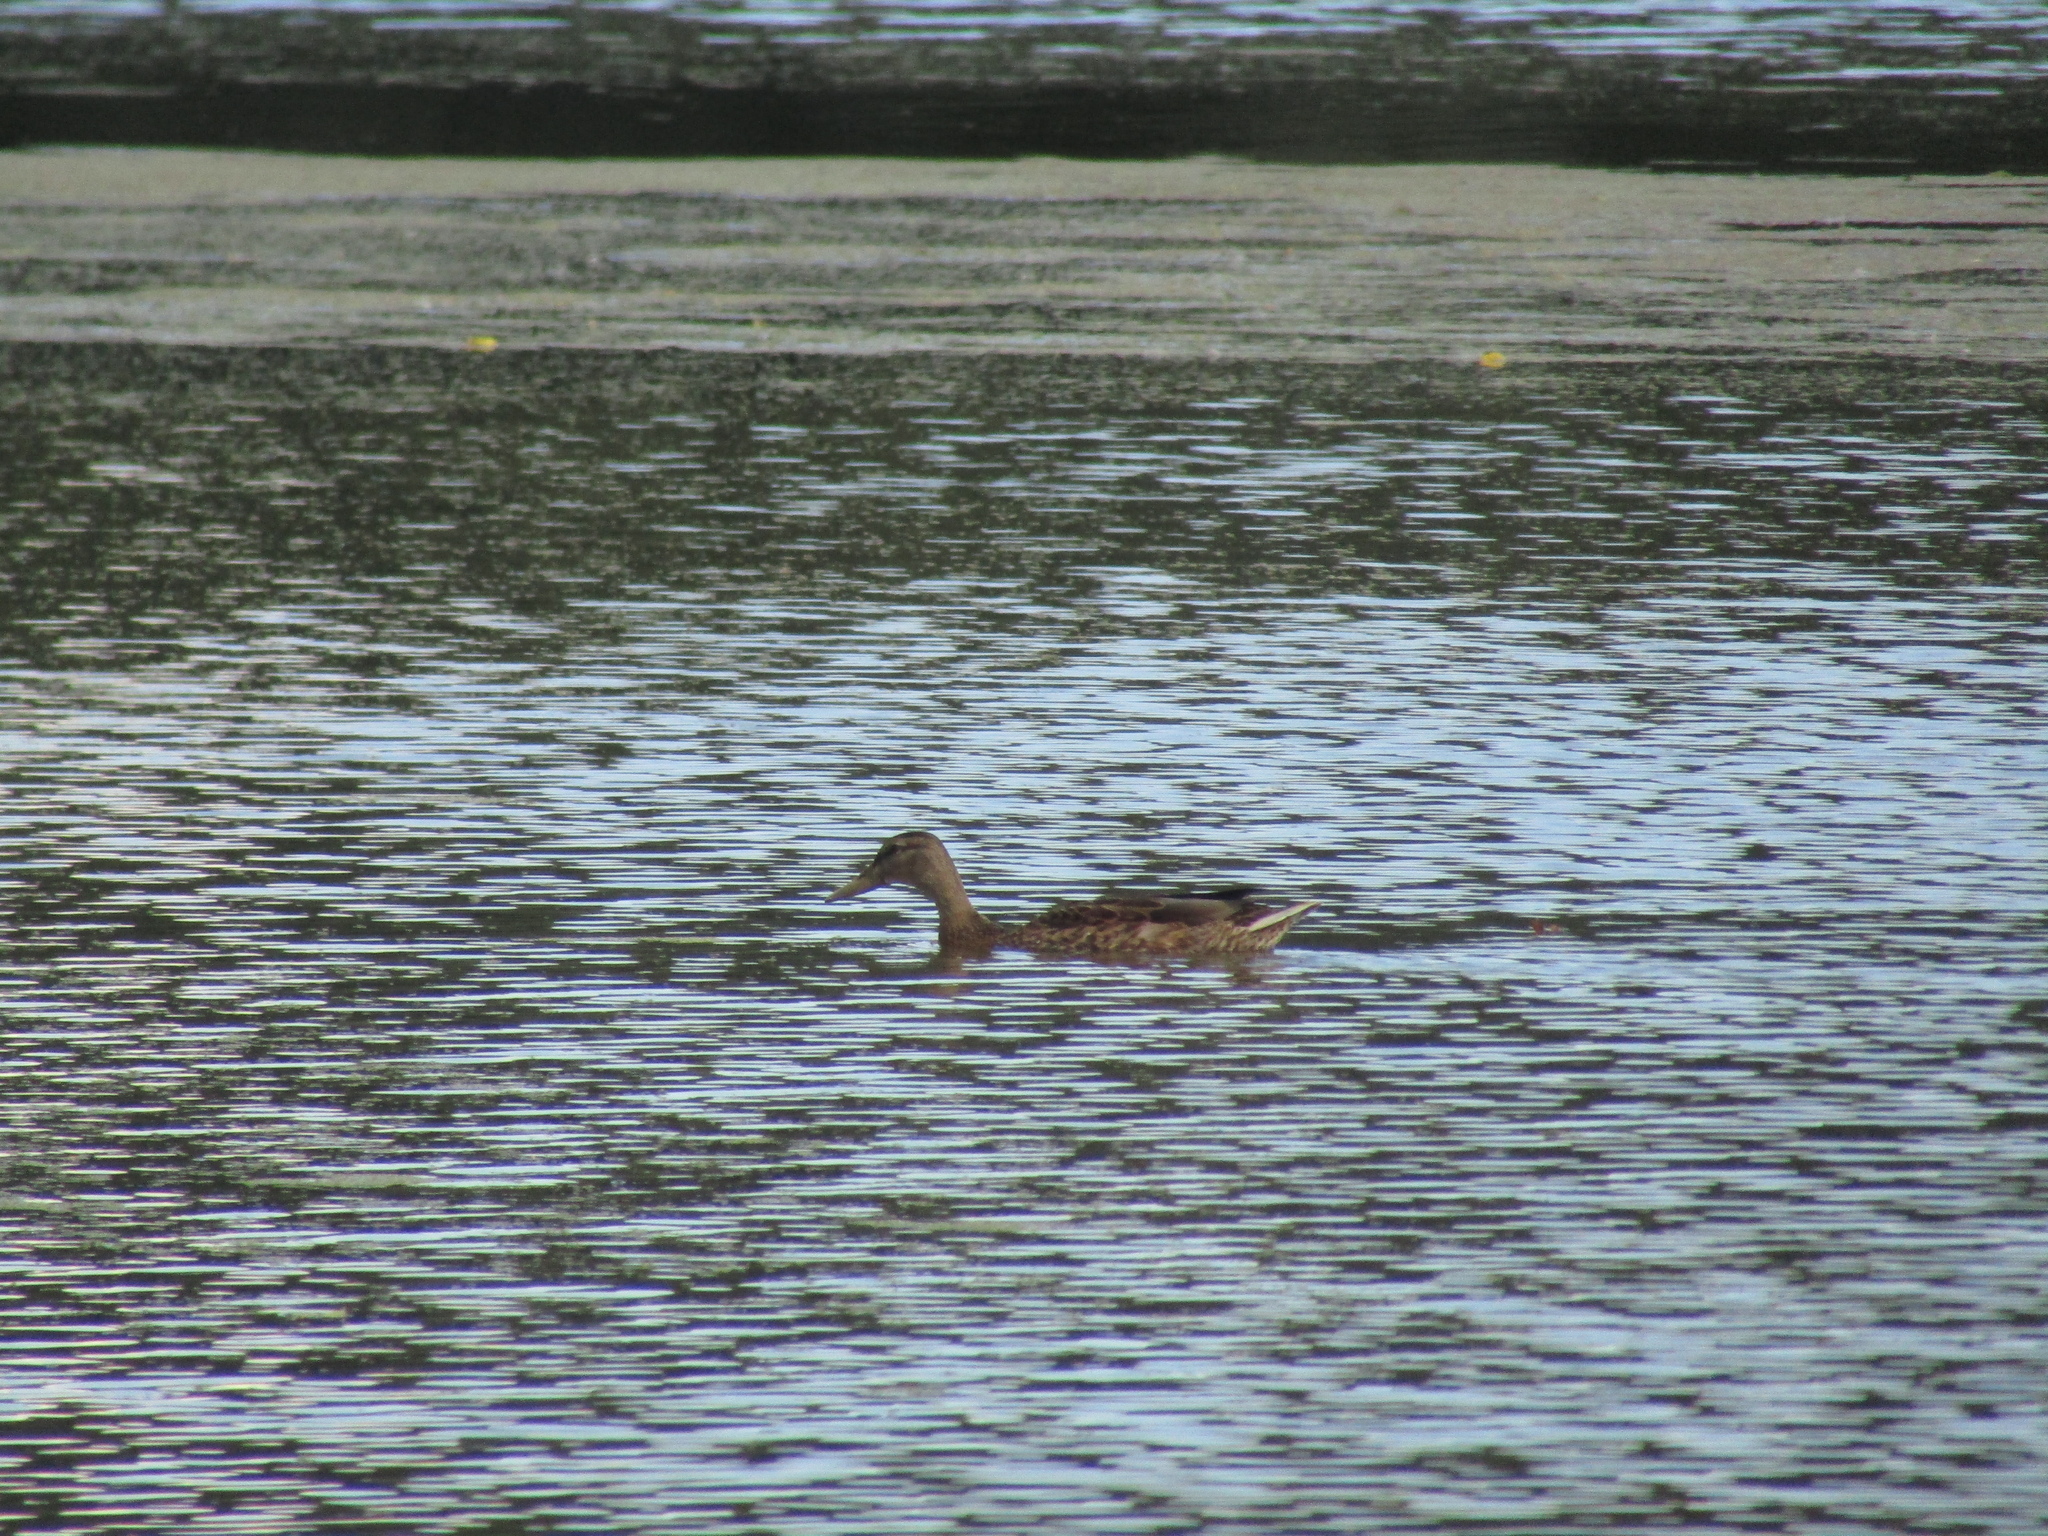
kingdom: Animalia
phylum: Chordata
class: Aves
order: Anseriformes
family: Anatidae
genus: Anas
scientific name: Anas platyrhynchos
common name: Mallard
